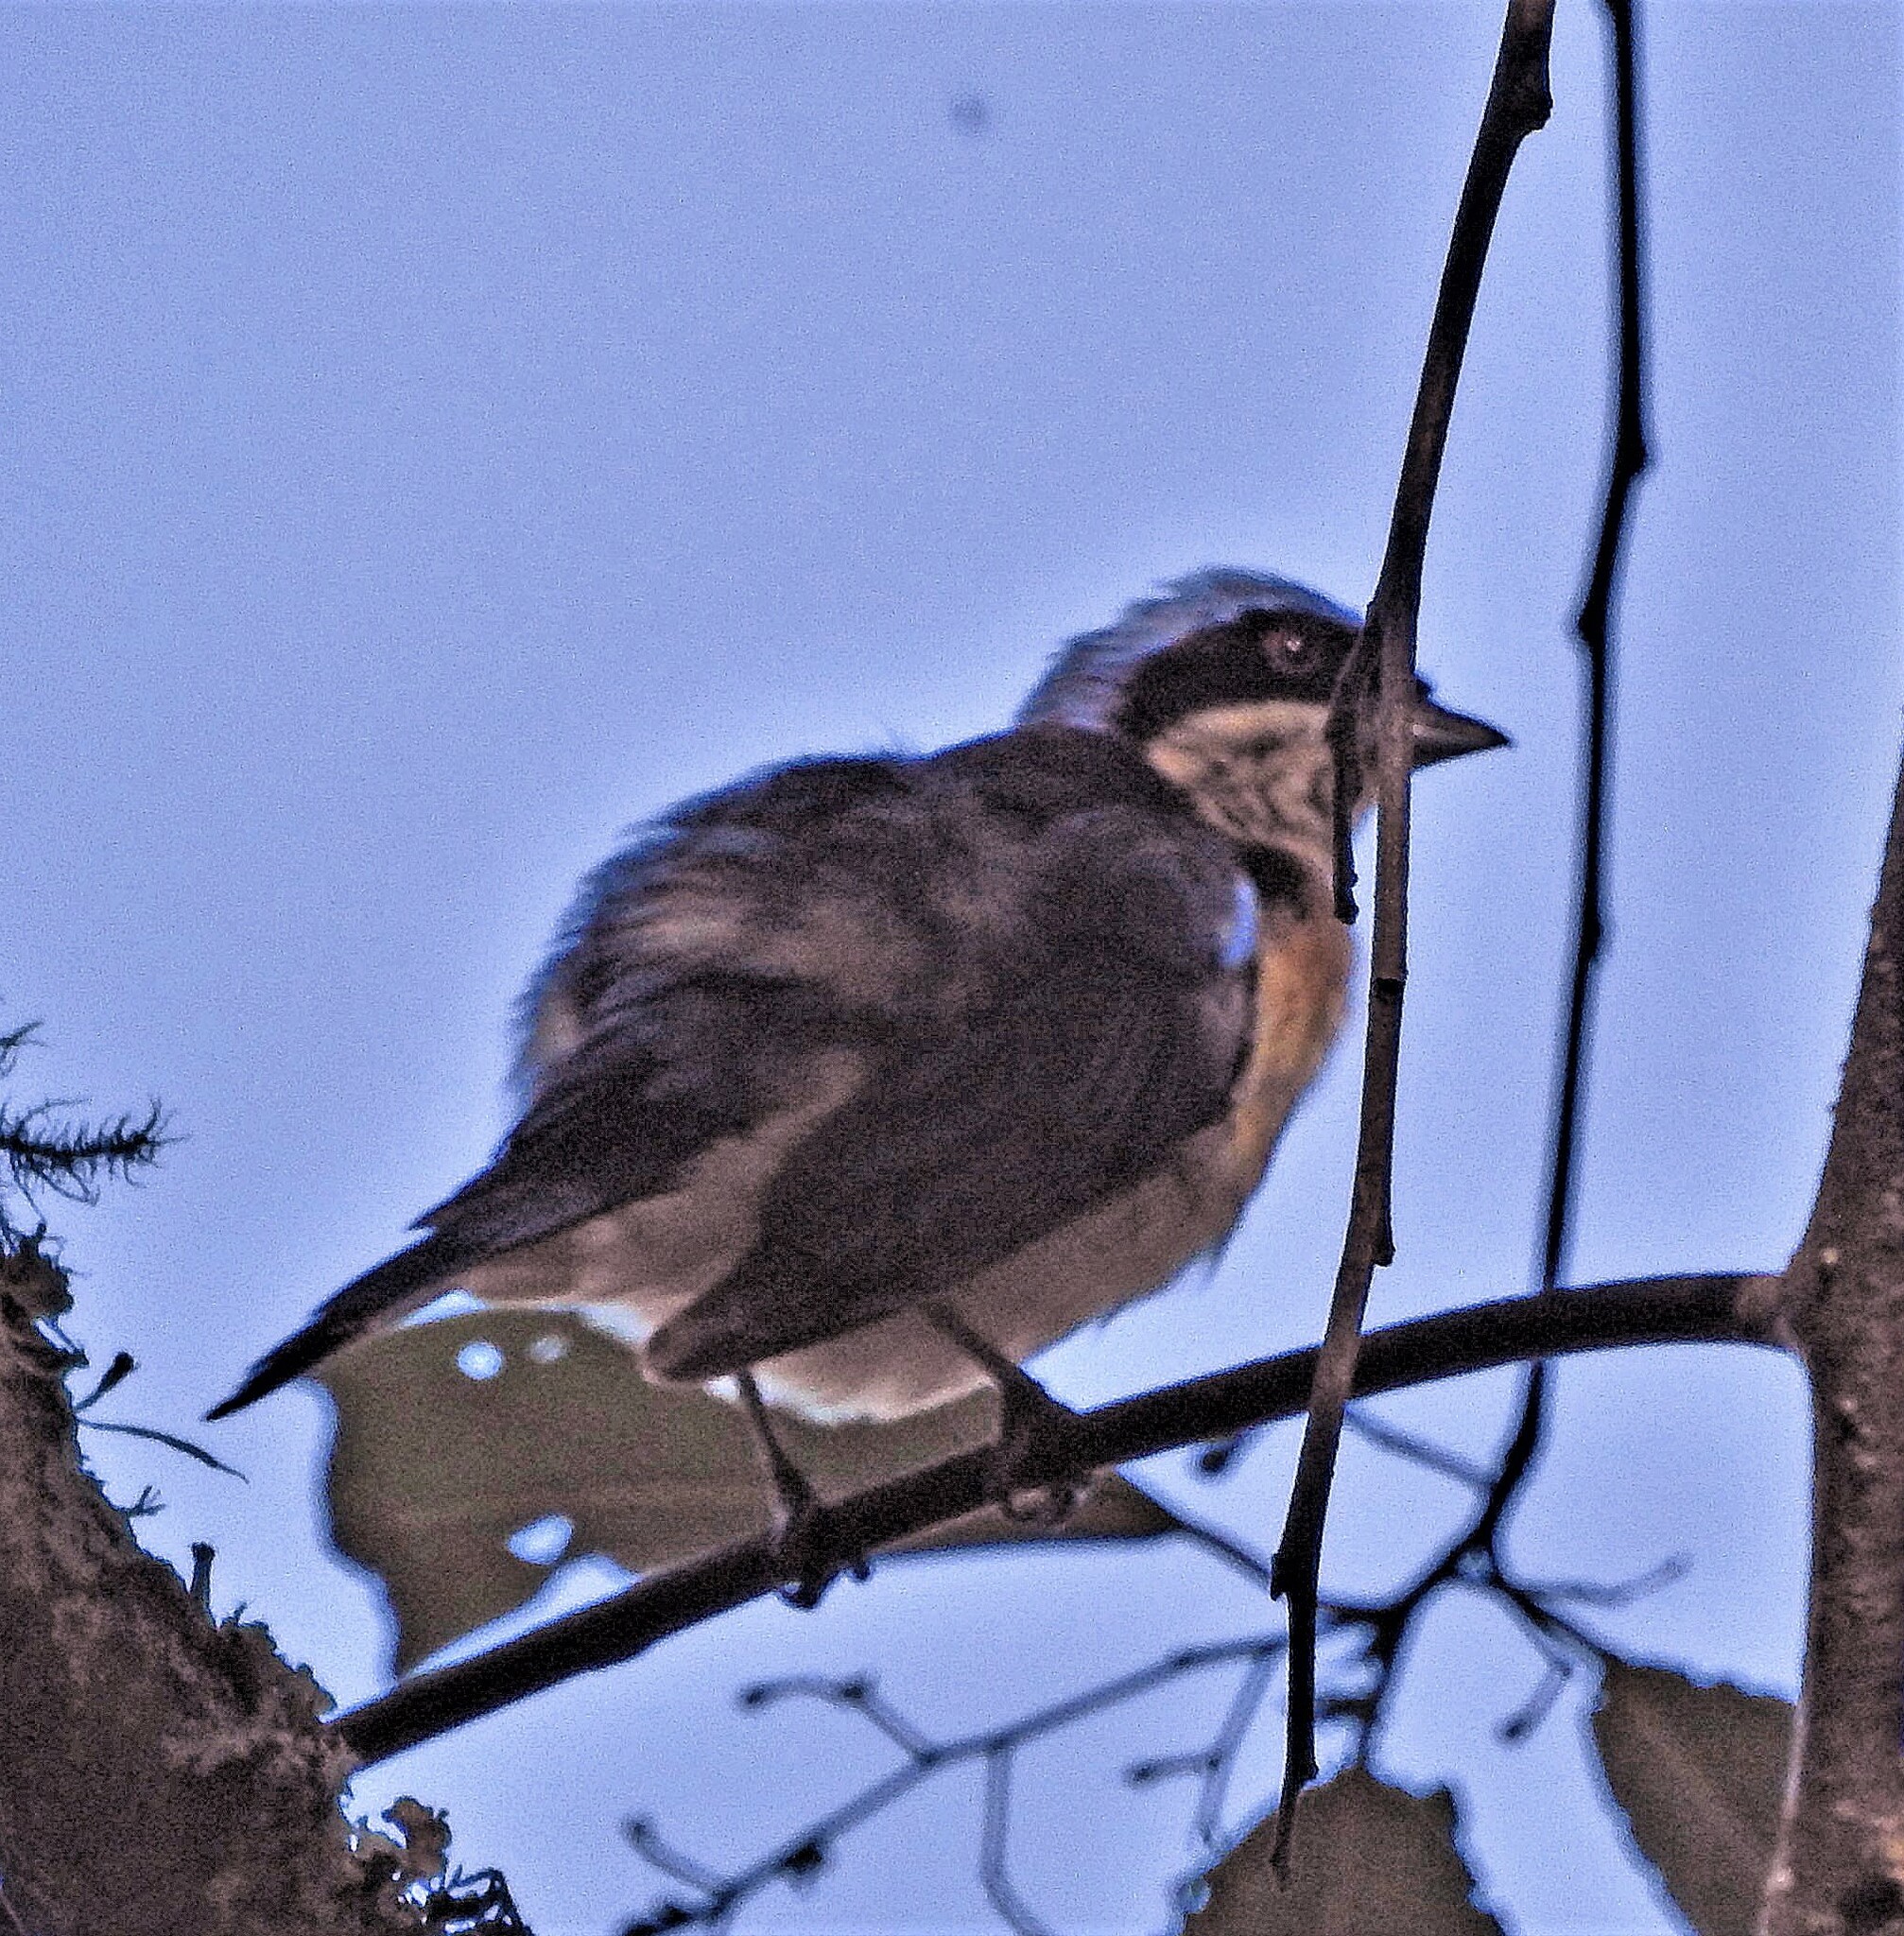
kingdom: Animalia
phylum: Chordata
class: Aves
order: Passeriformes
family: Thraupidae
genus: Pipraeidea
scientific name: Pipraeidea melanonota
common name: Fawn-breasted tanager
